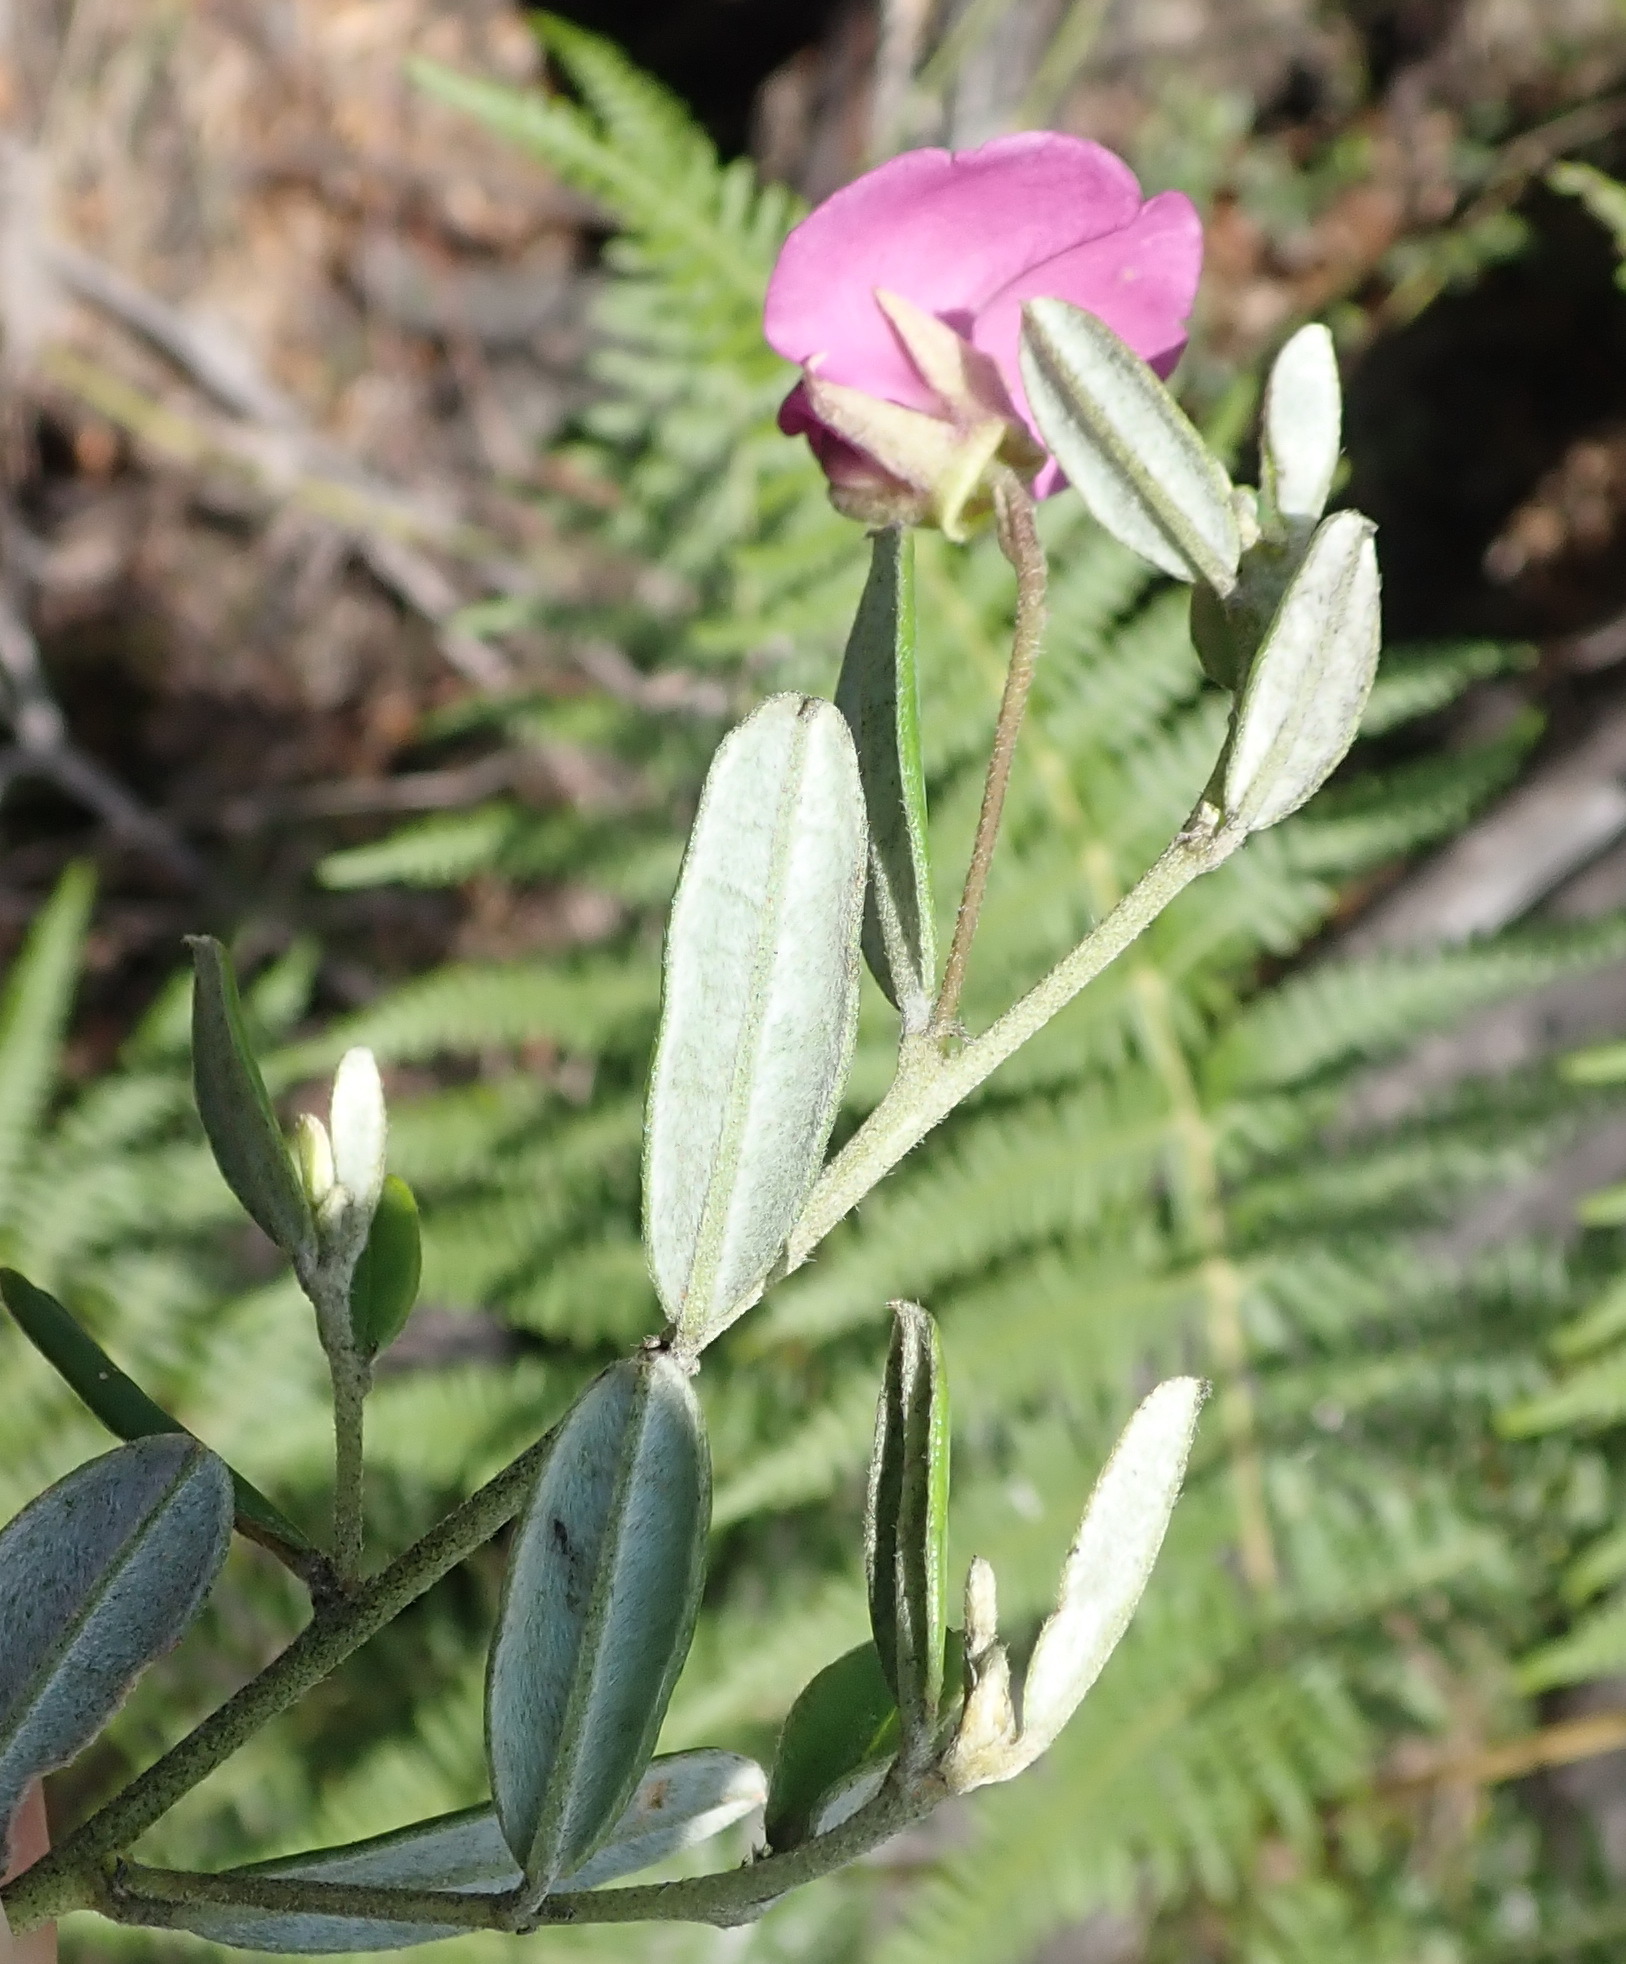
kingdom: Plantae
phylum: Tracheophyta
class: Magnoliopsida
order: Fabales
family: Fabaceae
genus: Podalyria
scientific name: Podalyria buxifolia
